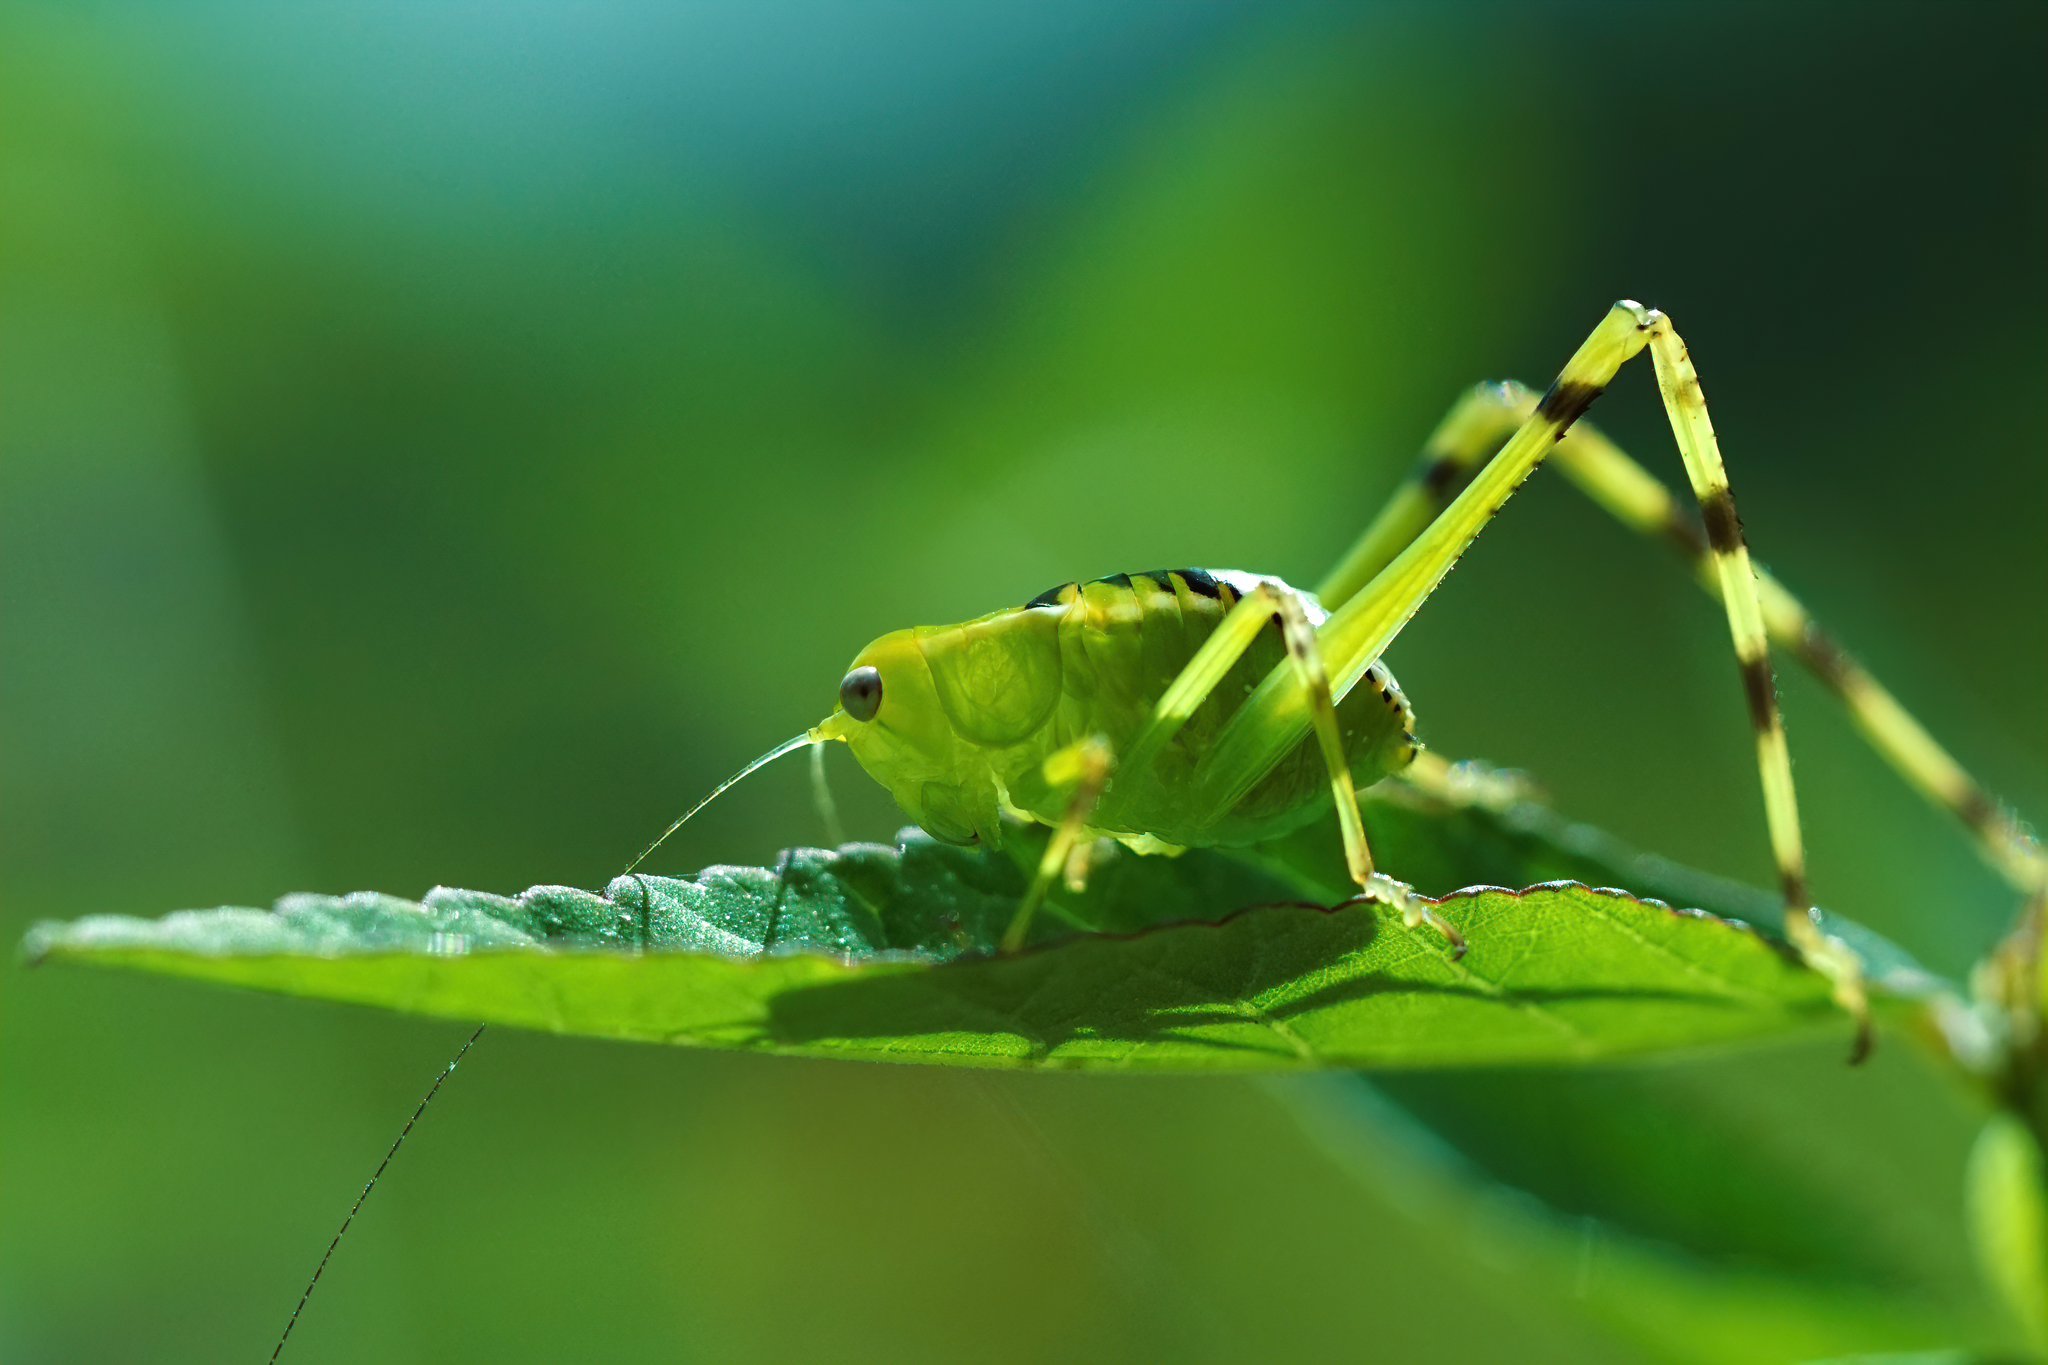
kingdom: Animalia
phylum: Arthropoda
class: Insecta
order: Orthoptera
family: Tettigoniidae
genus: Stilpnochlora
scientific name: Stilpnochlora couloniana
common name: Giant katydid
